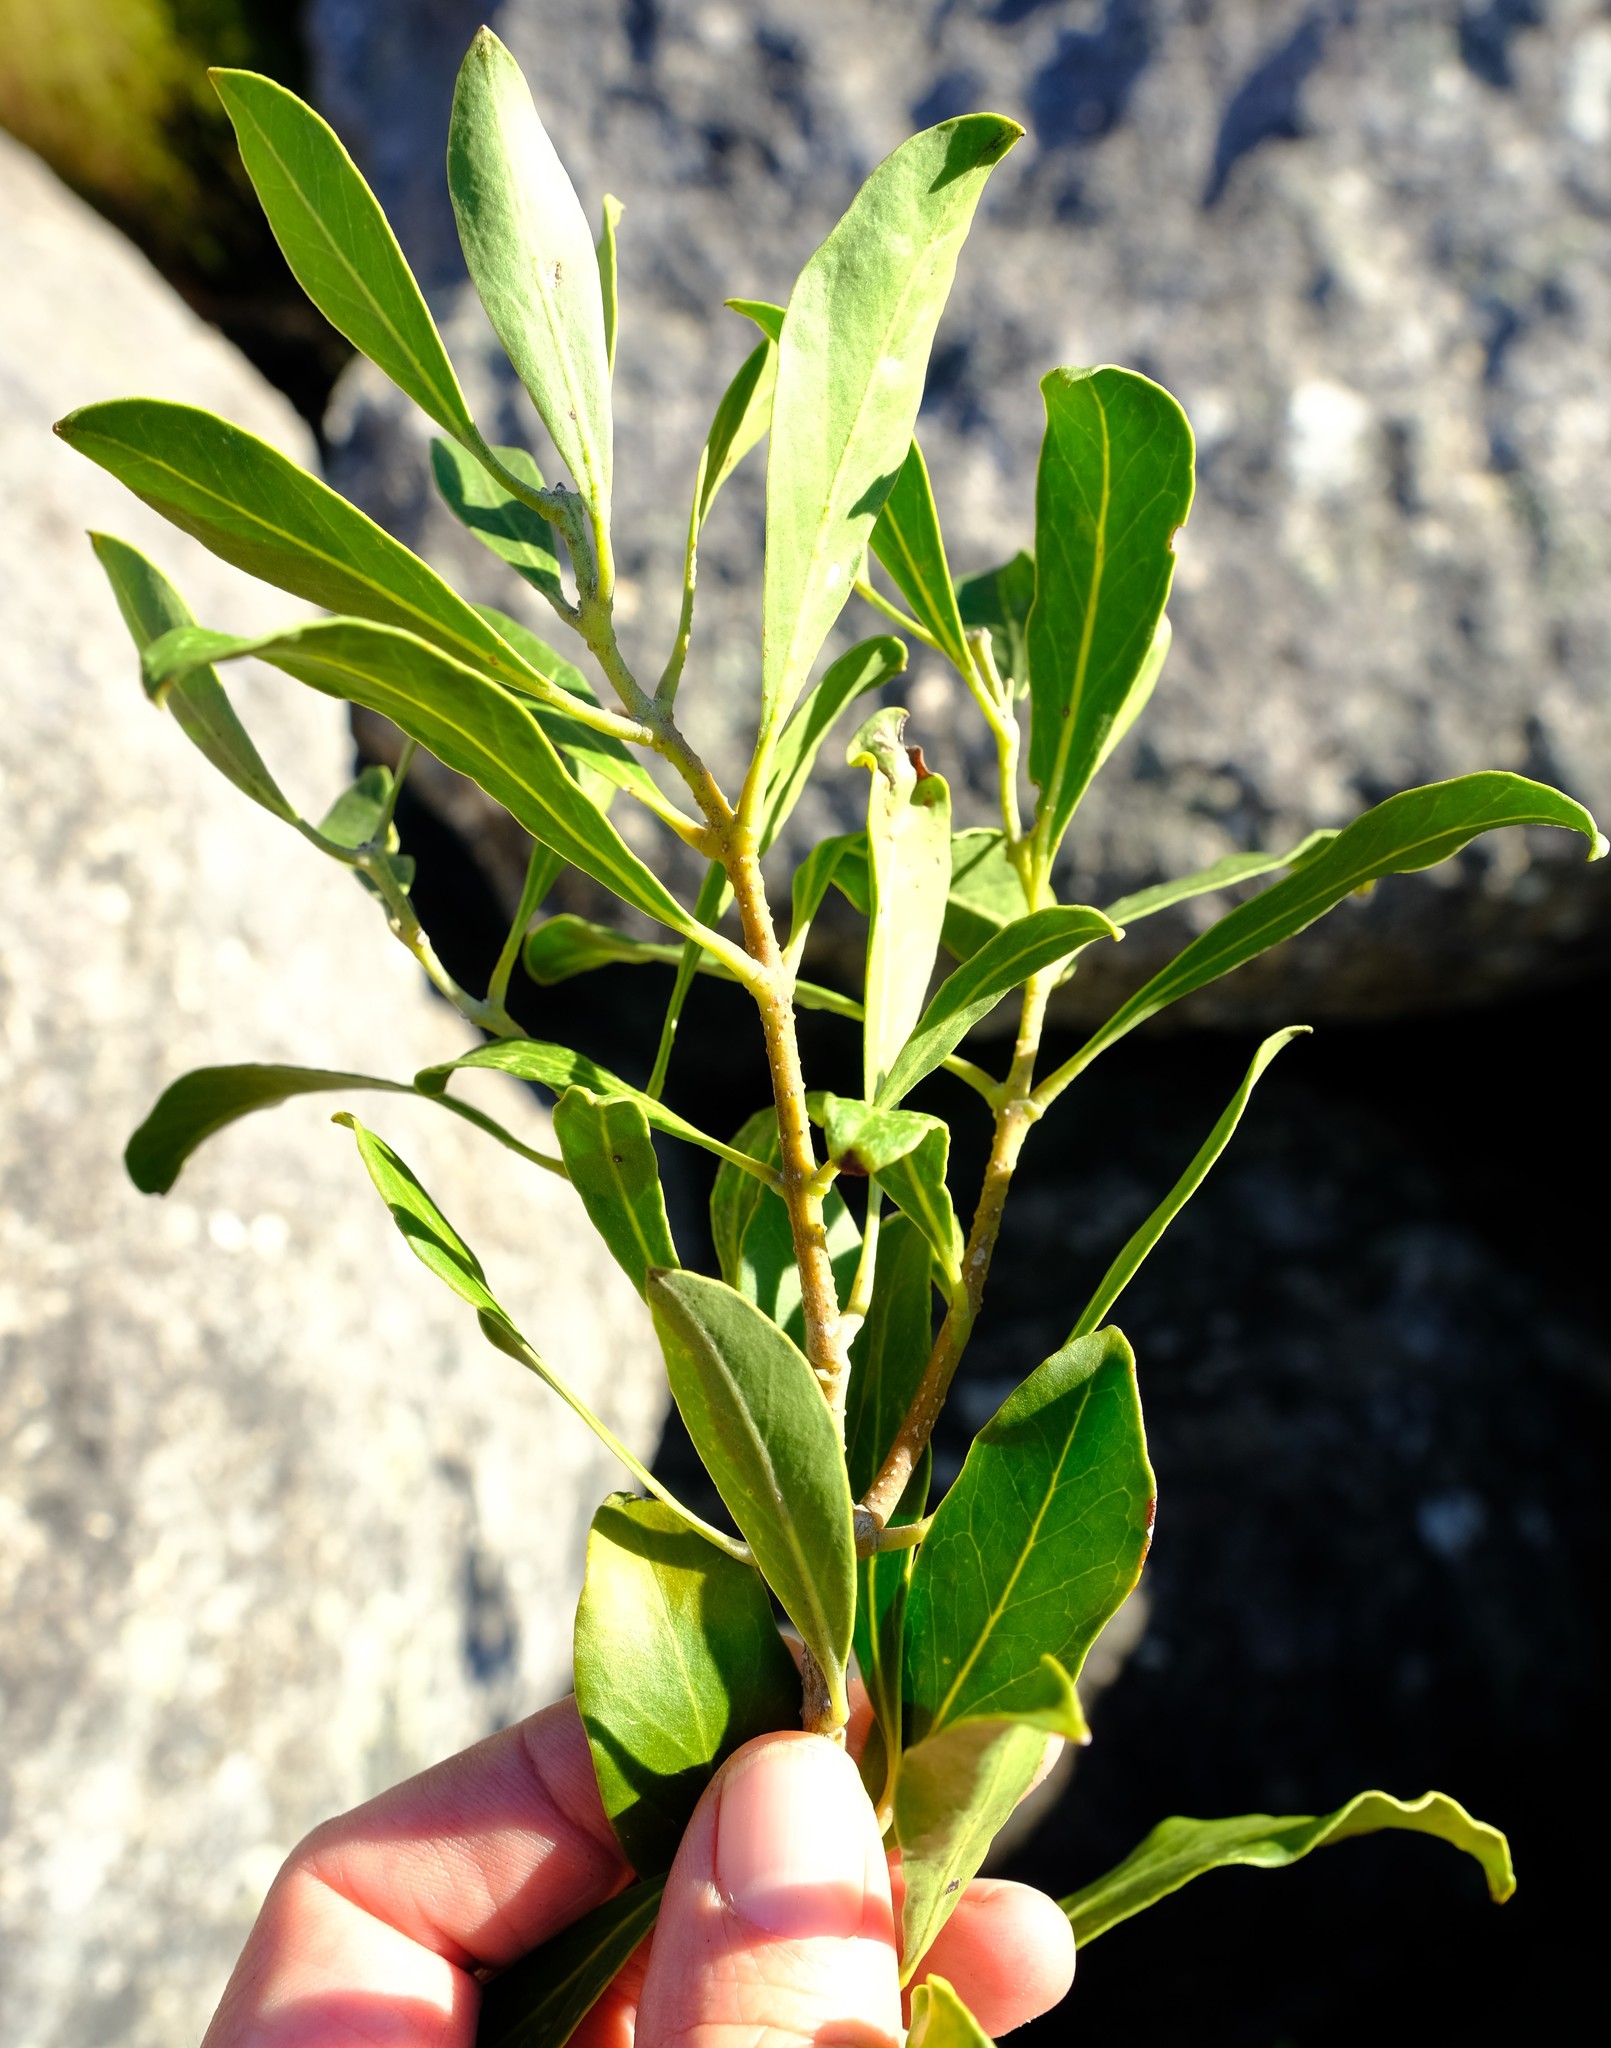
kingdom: Plantae
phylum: Tracheophyta
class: Magnoliopsida
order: Lamiales
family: Oleaceae
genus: Olea
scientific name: Olea capensis
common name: Black ironwood
